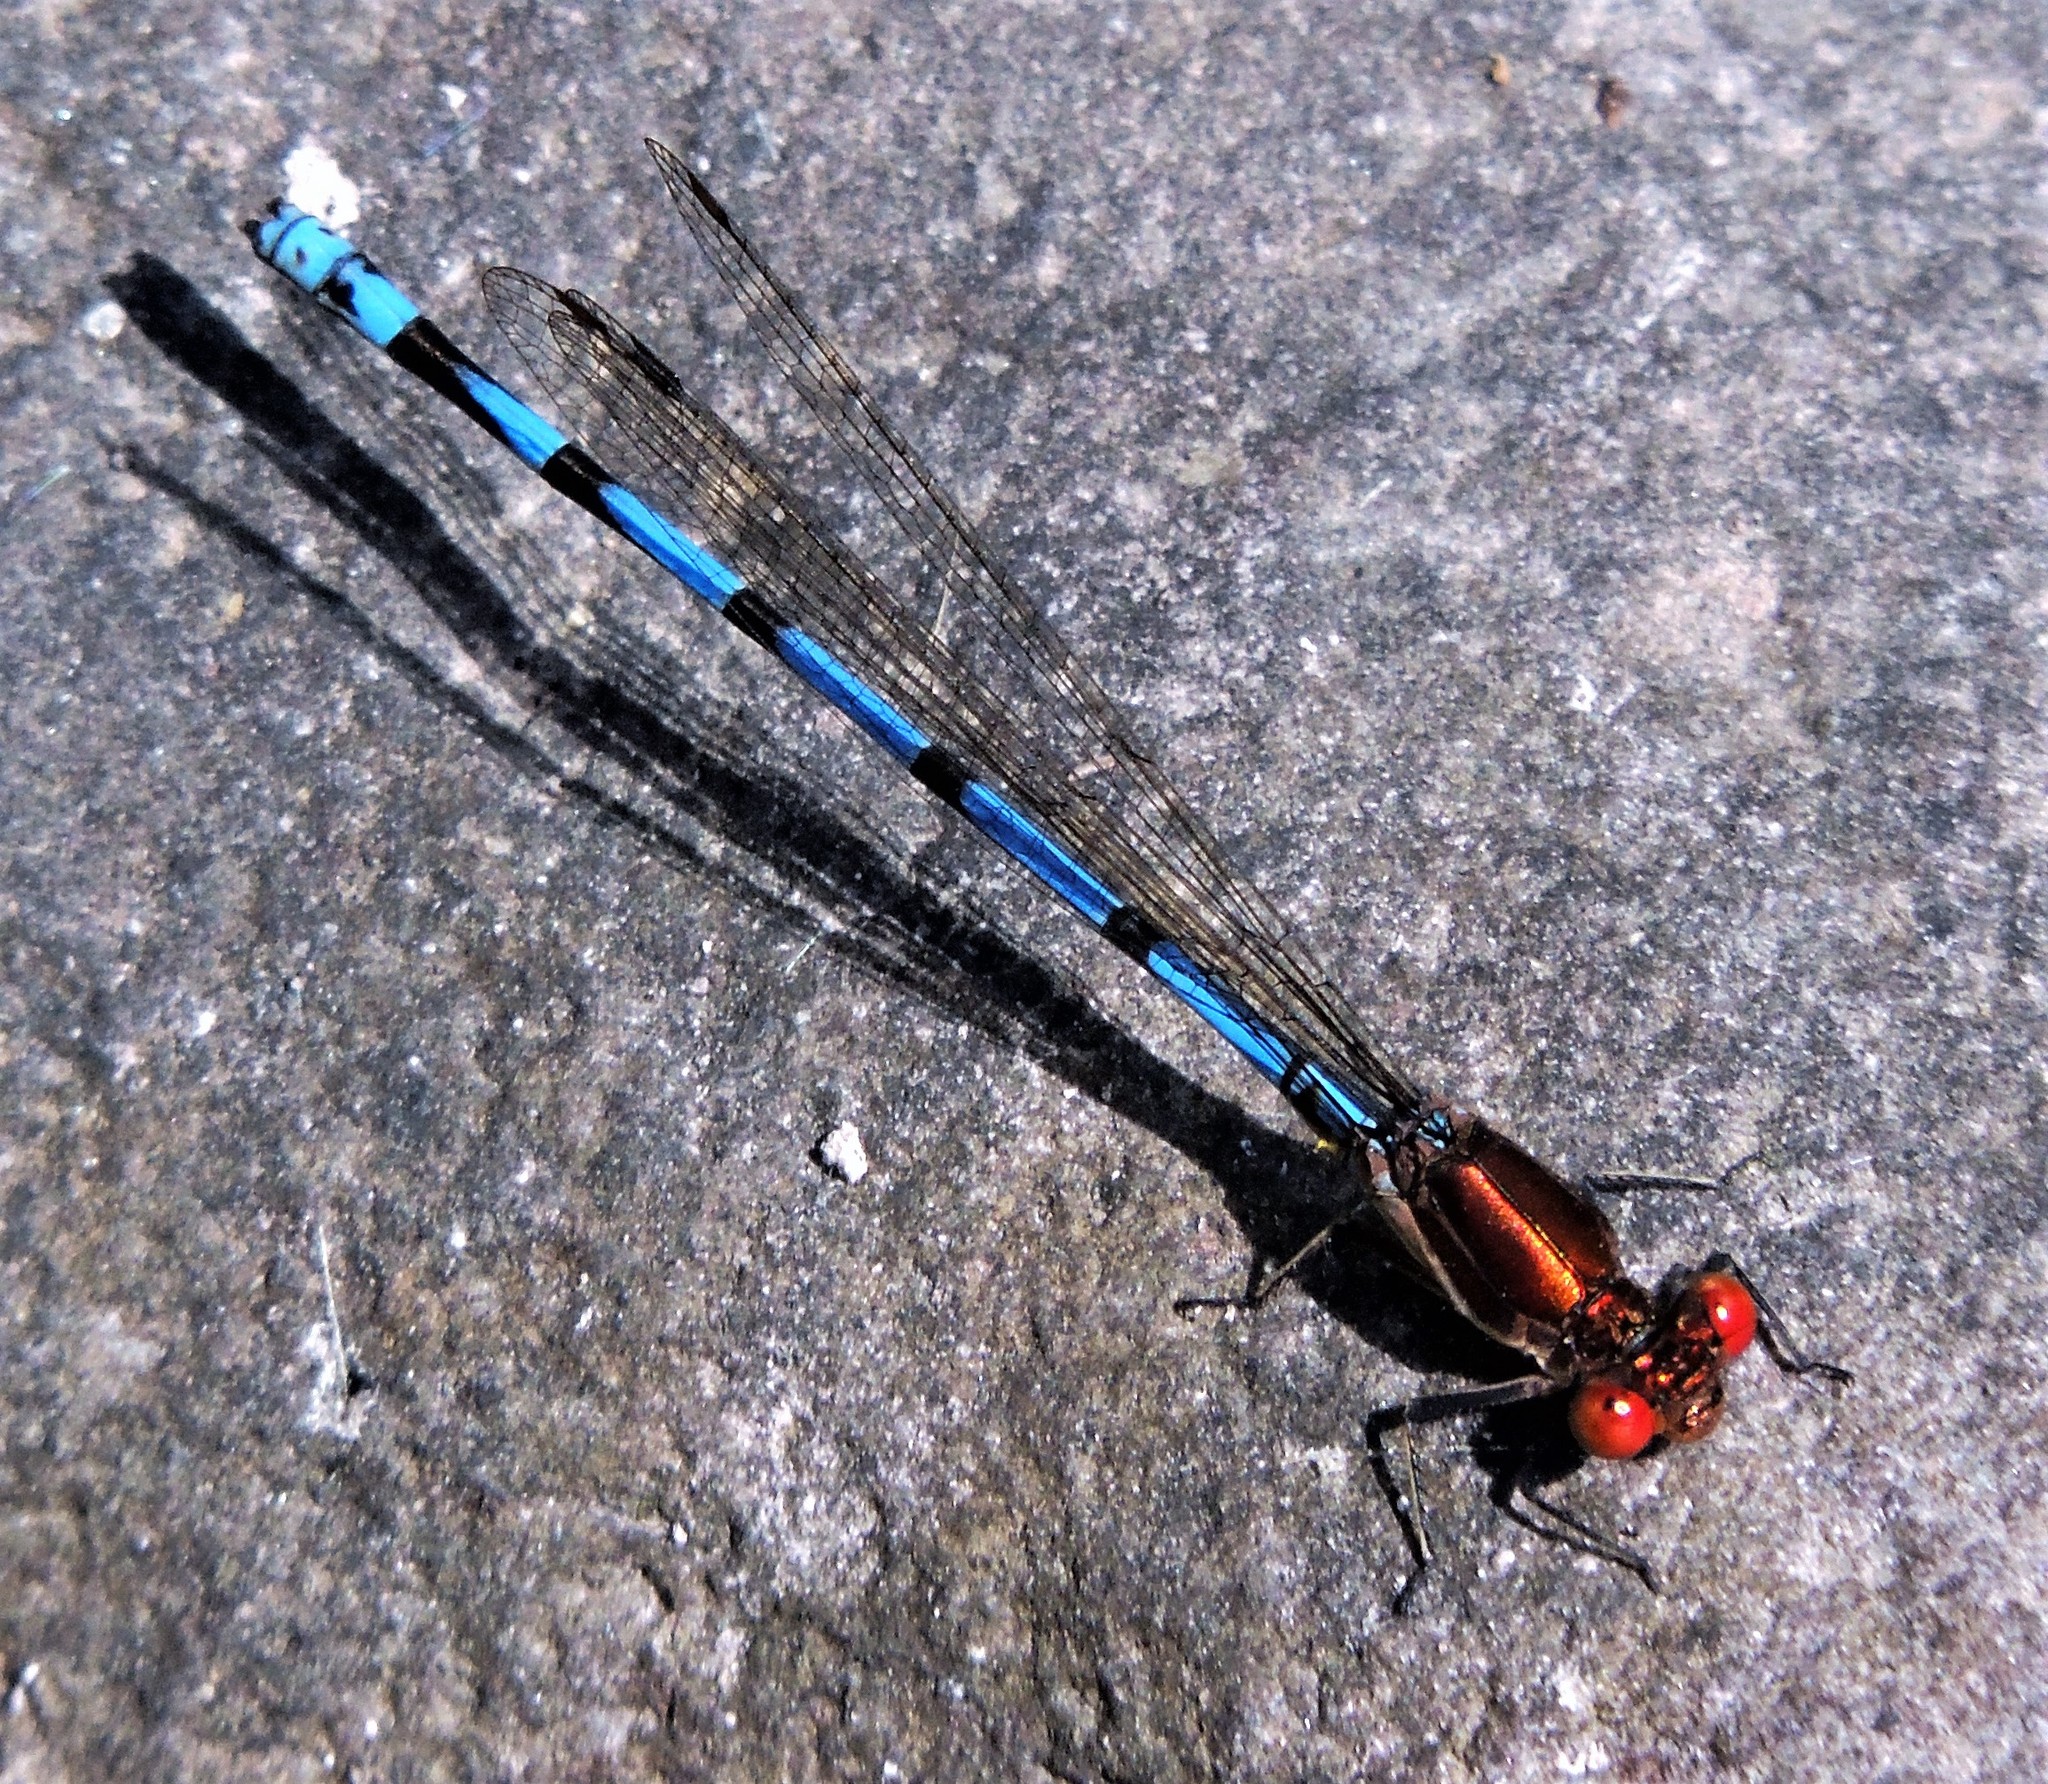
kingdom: Animalia
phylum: Arthropoda
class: Insecta
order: Odonata
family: Coenagrionidae
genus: Argia
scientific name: Argia joergenseni
